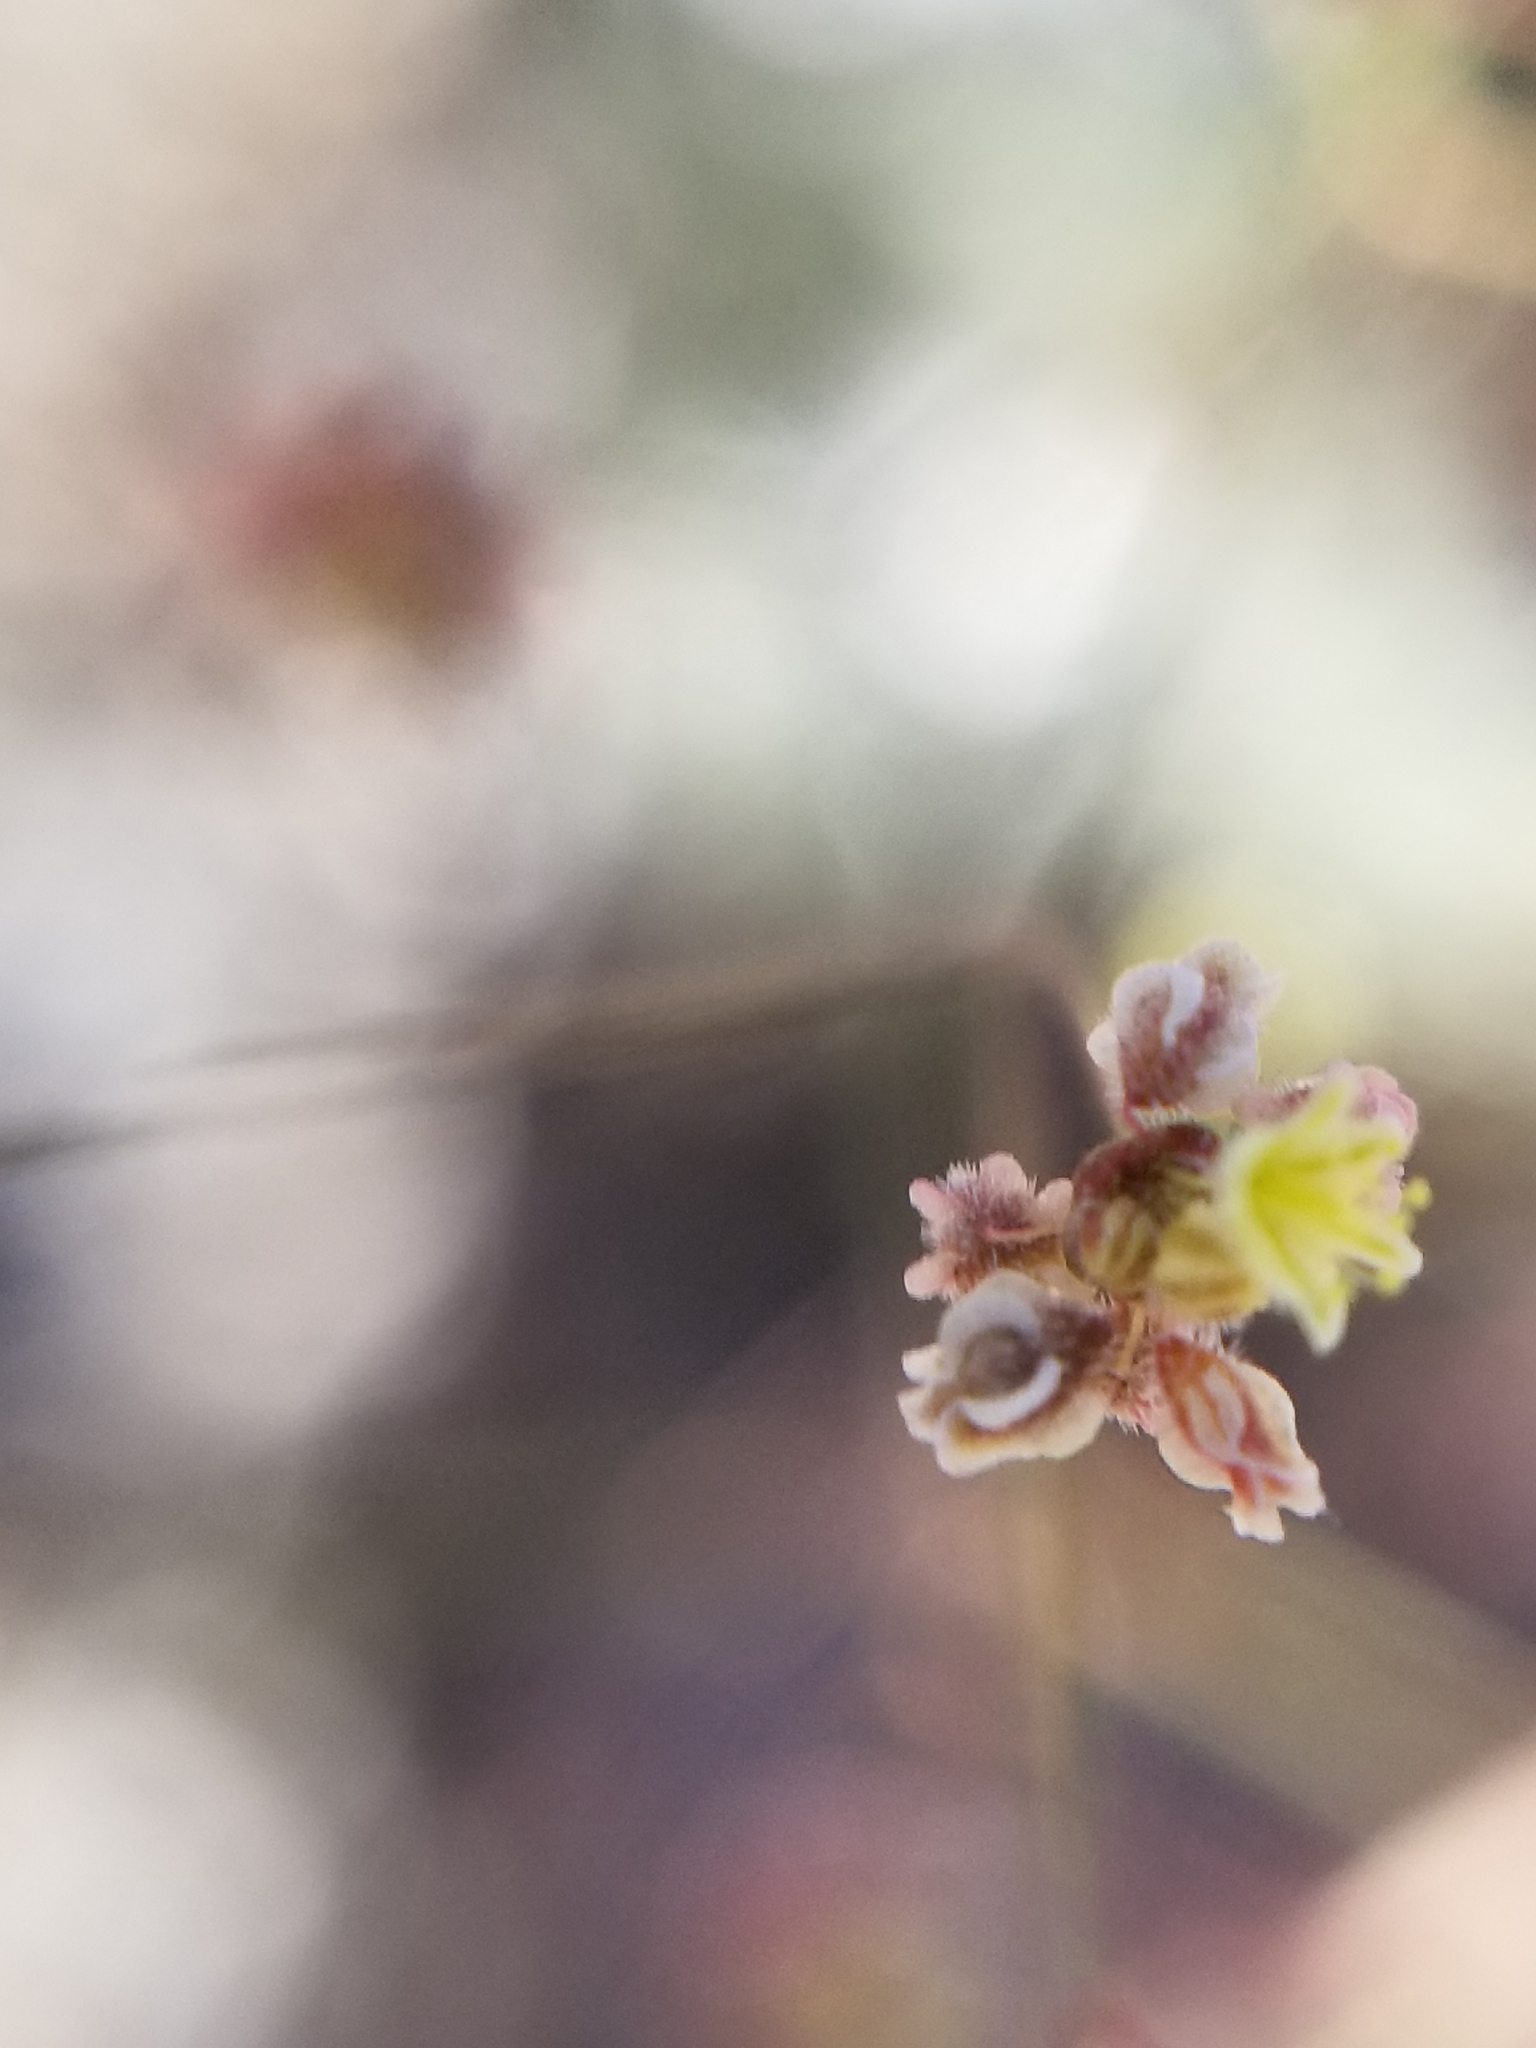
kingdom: Plantae
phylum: Tracheophyta
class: Magnoliopsida
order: Caryophyllales
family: Polygonaceae
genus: Eriogonum
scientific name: Eriogonum thomasii
